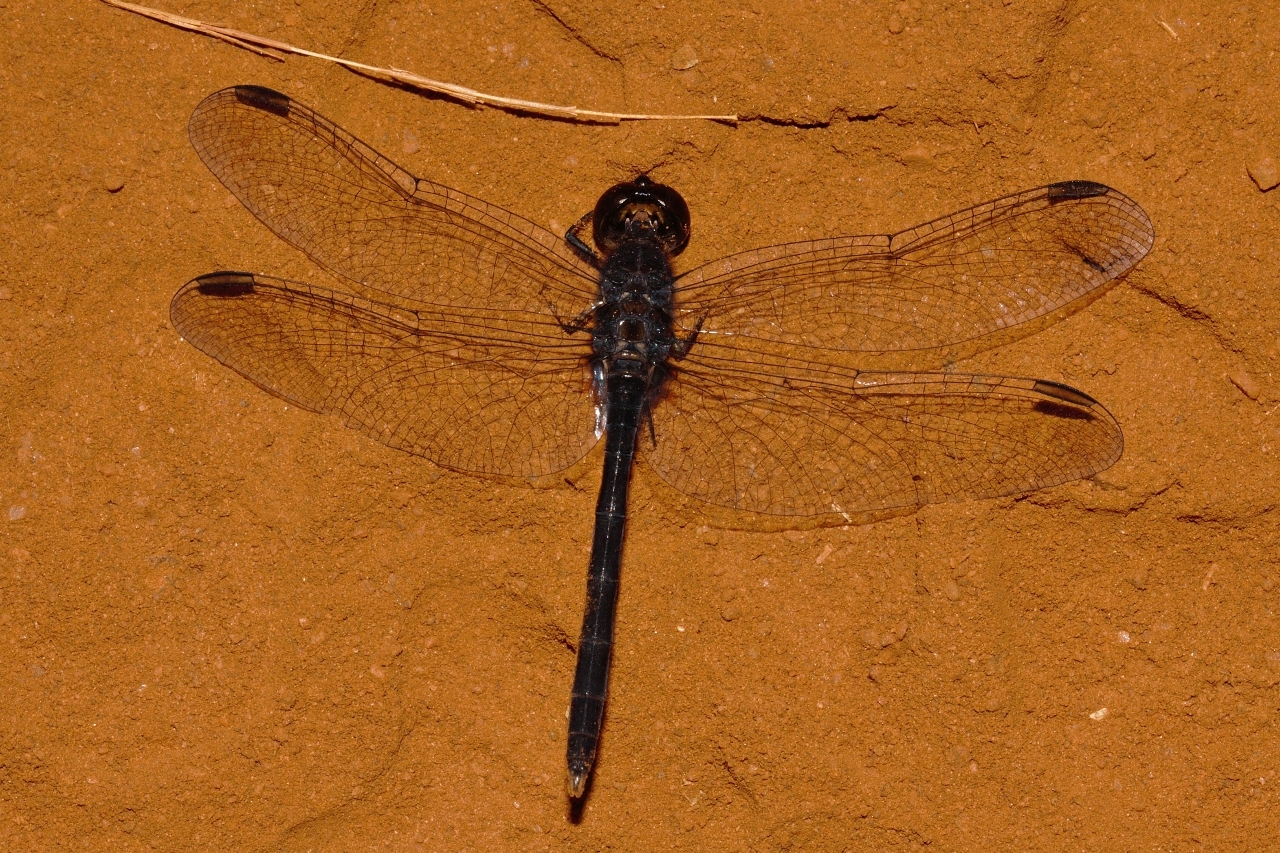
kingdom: Animalia
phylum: Arthropoda
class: Insecta
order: Odonata
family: Libellulidae
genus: Diplacodes
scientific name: Diplacodes lefebvrii
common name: Black percher
